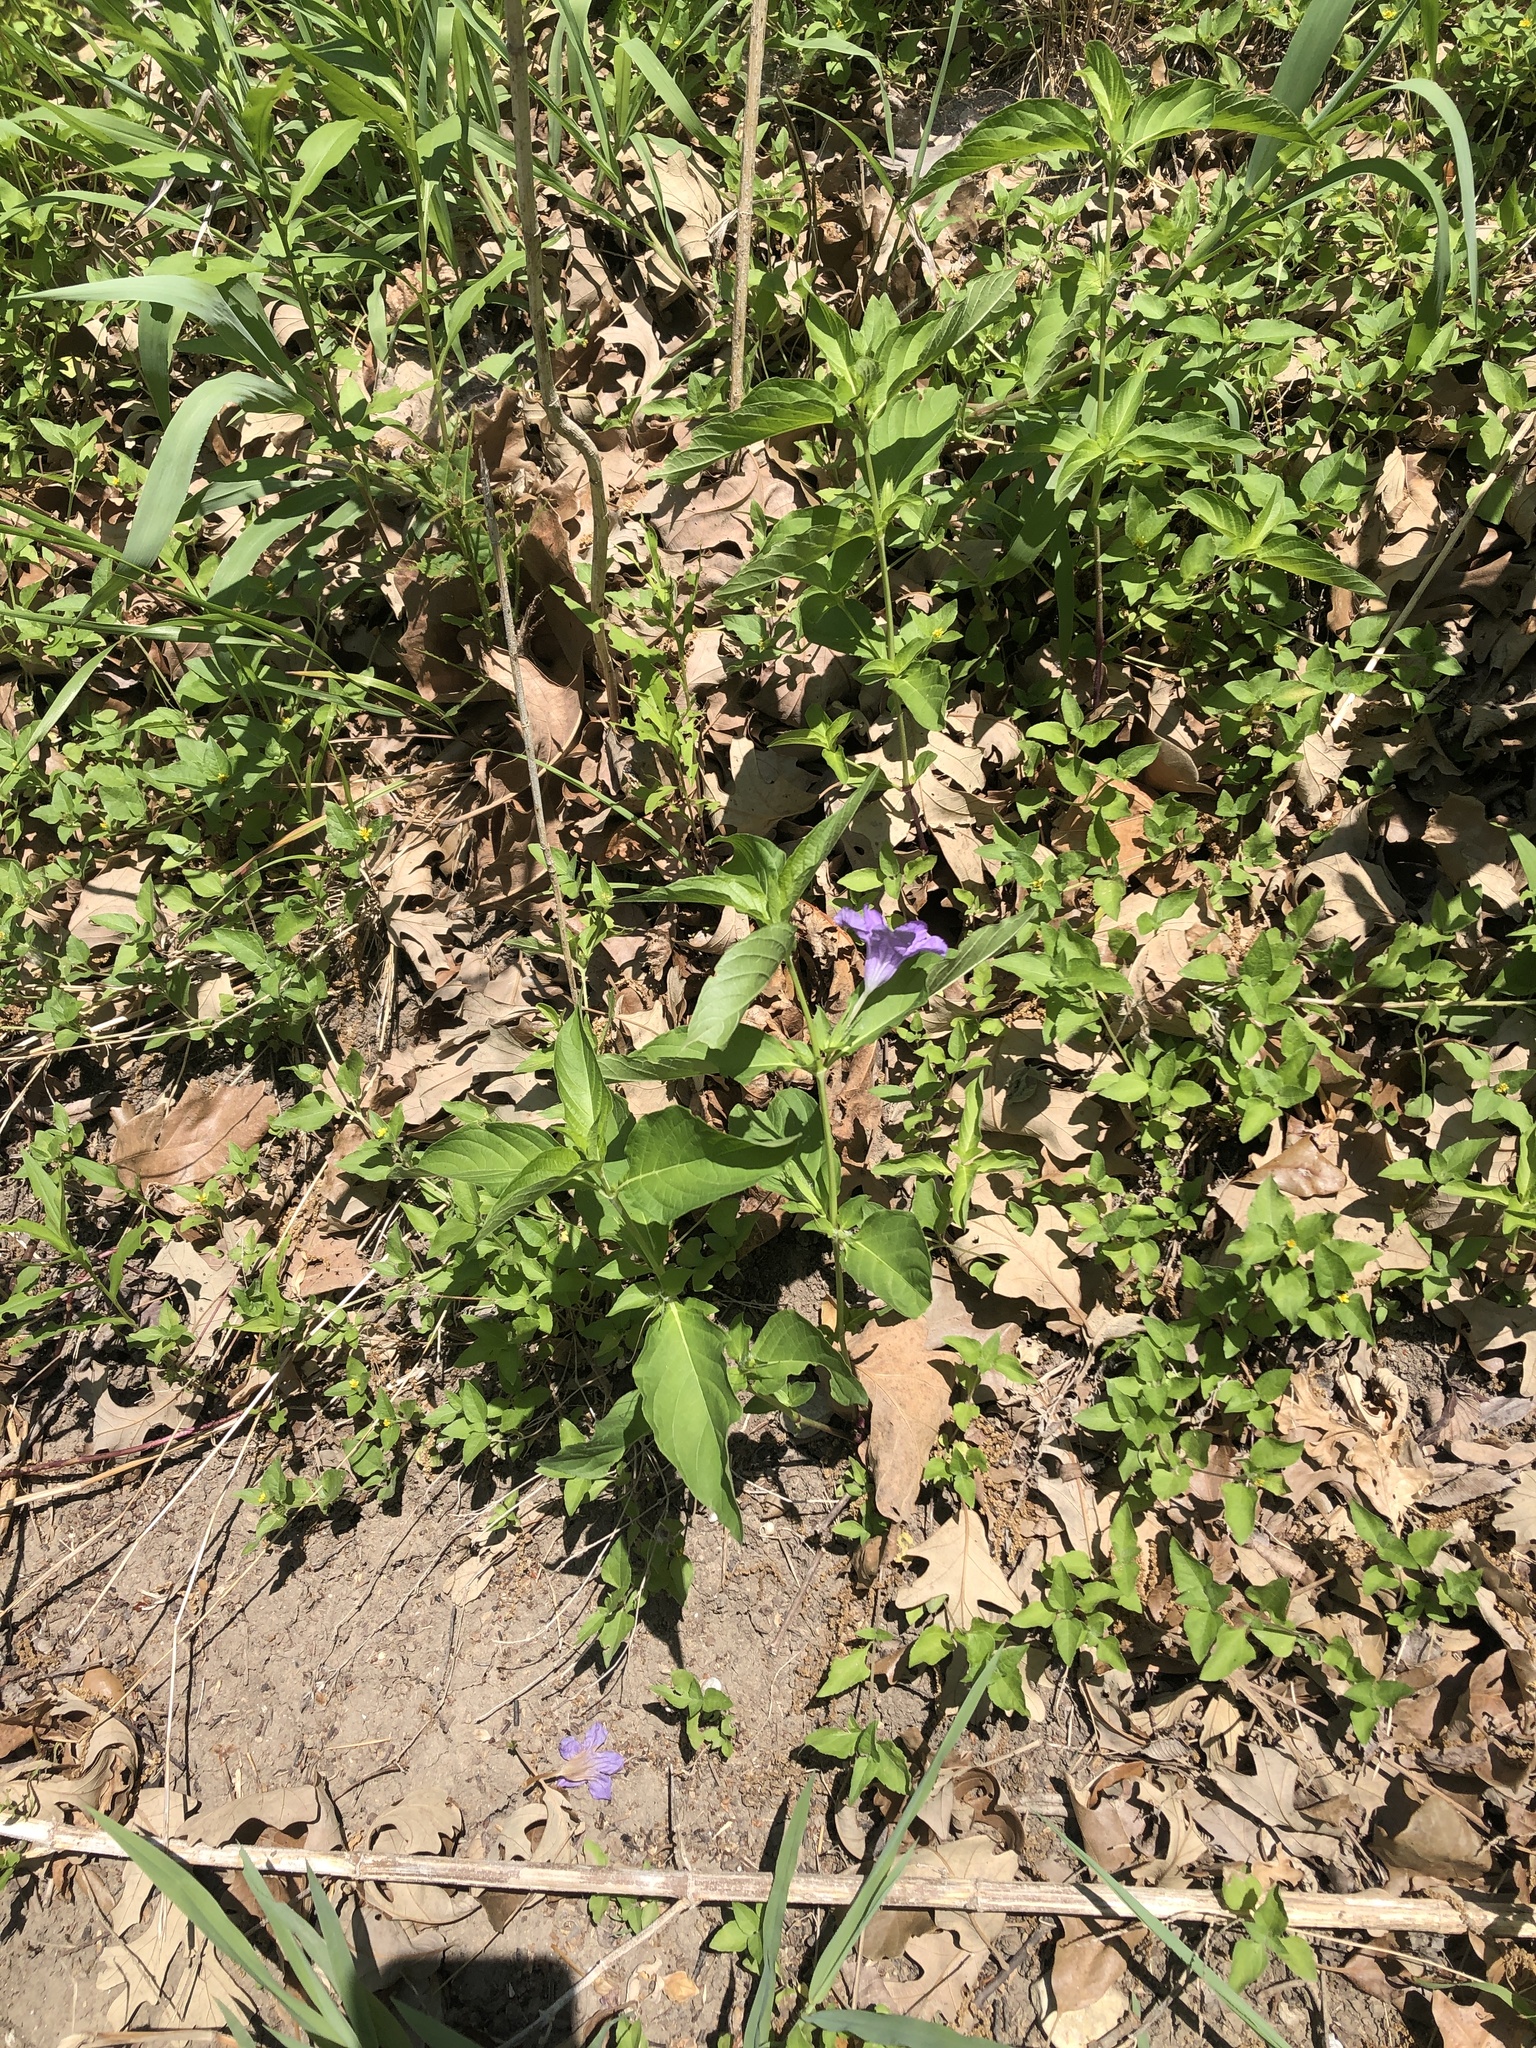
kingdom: Plantae
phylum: Tracheophyta
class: Magnoliopsida
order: Lamiales
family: Acanthaceae
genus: Ruellia
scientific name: Ruellia strepens
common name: Limestone wild petunia
